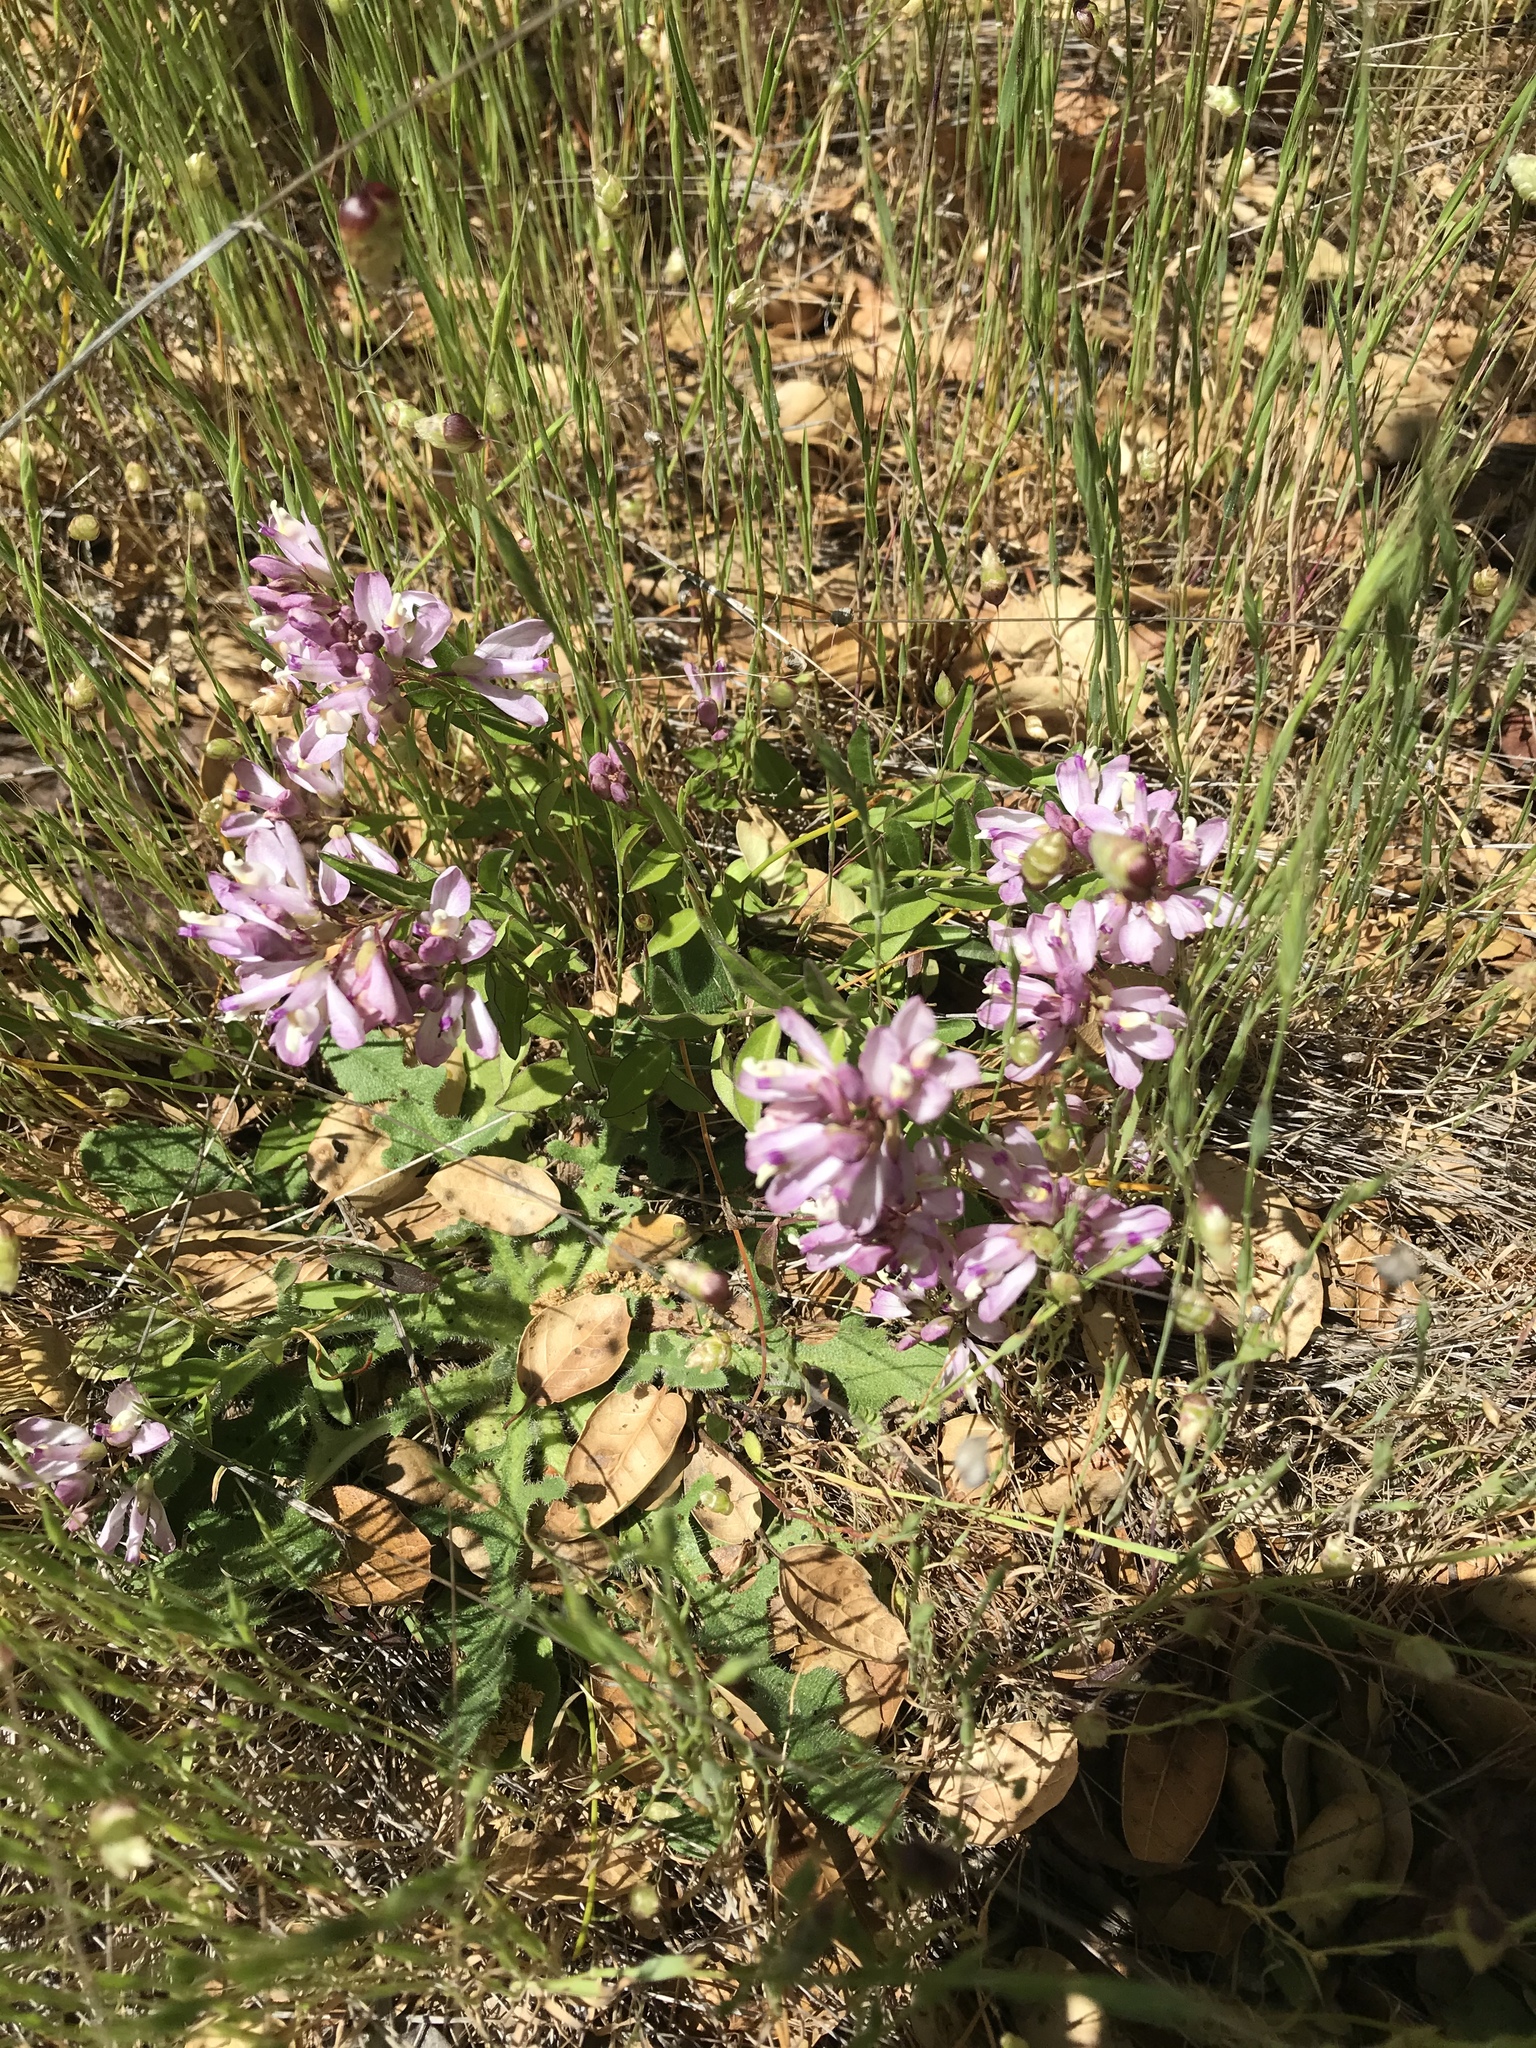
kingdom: Plantae
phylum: Tracheophyta
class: Magnoliopsida
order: Fabales
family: Polygalaceae
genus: Rhinotropis
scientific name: Rhinotropis californica
